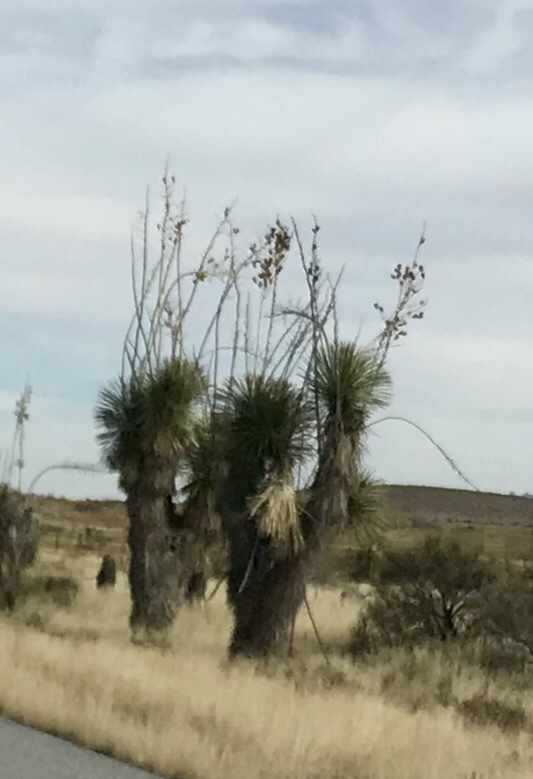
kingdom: Plantae
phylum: Tracheophyta
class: Liliopsida
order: Asparagales
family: Asparagaceae
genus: Yucca
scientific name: Yucca elata
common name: Palmella
